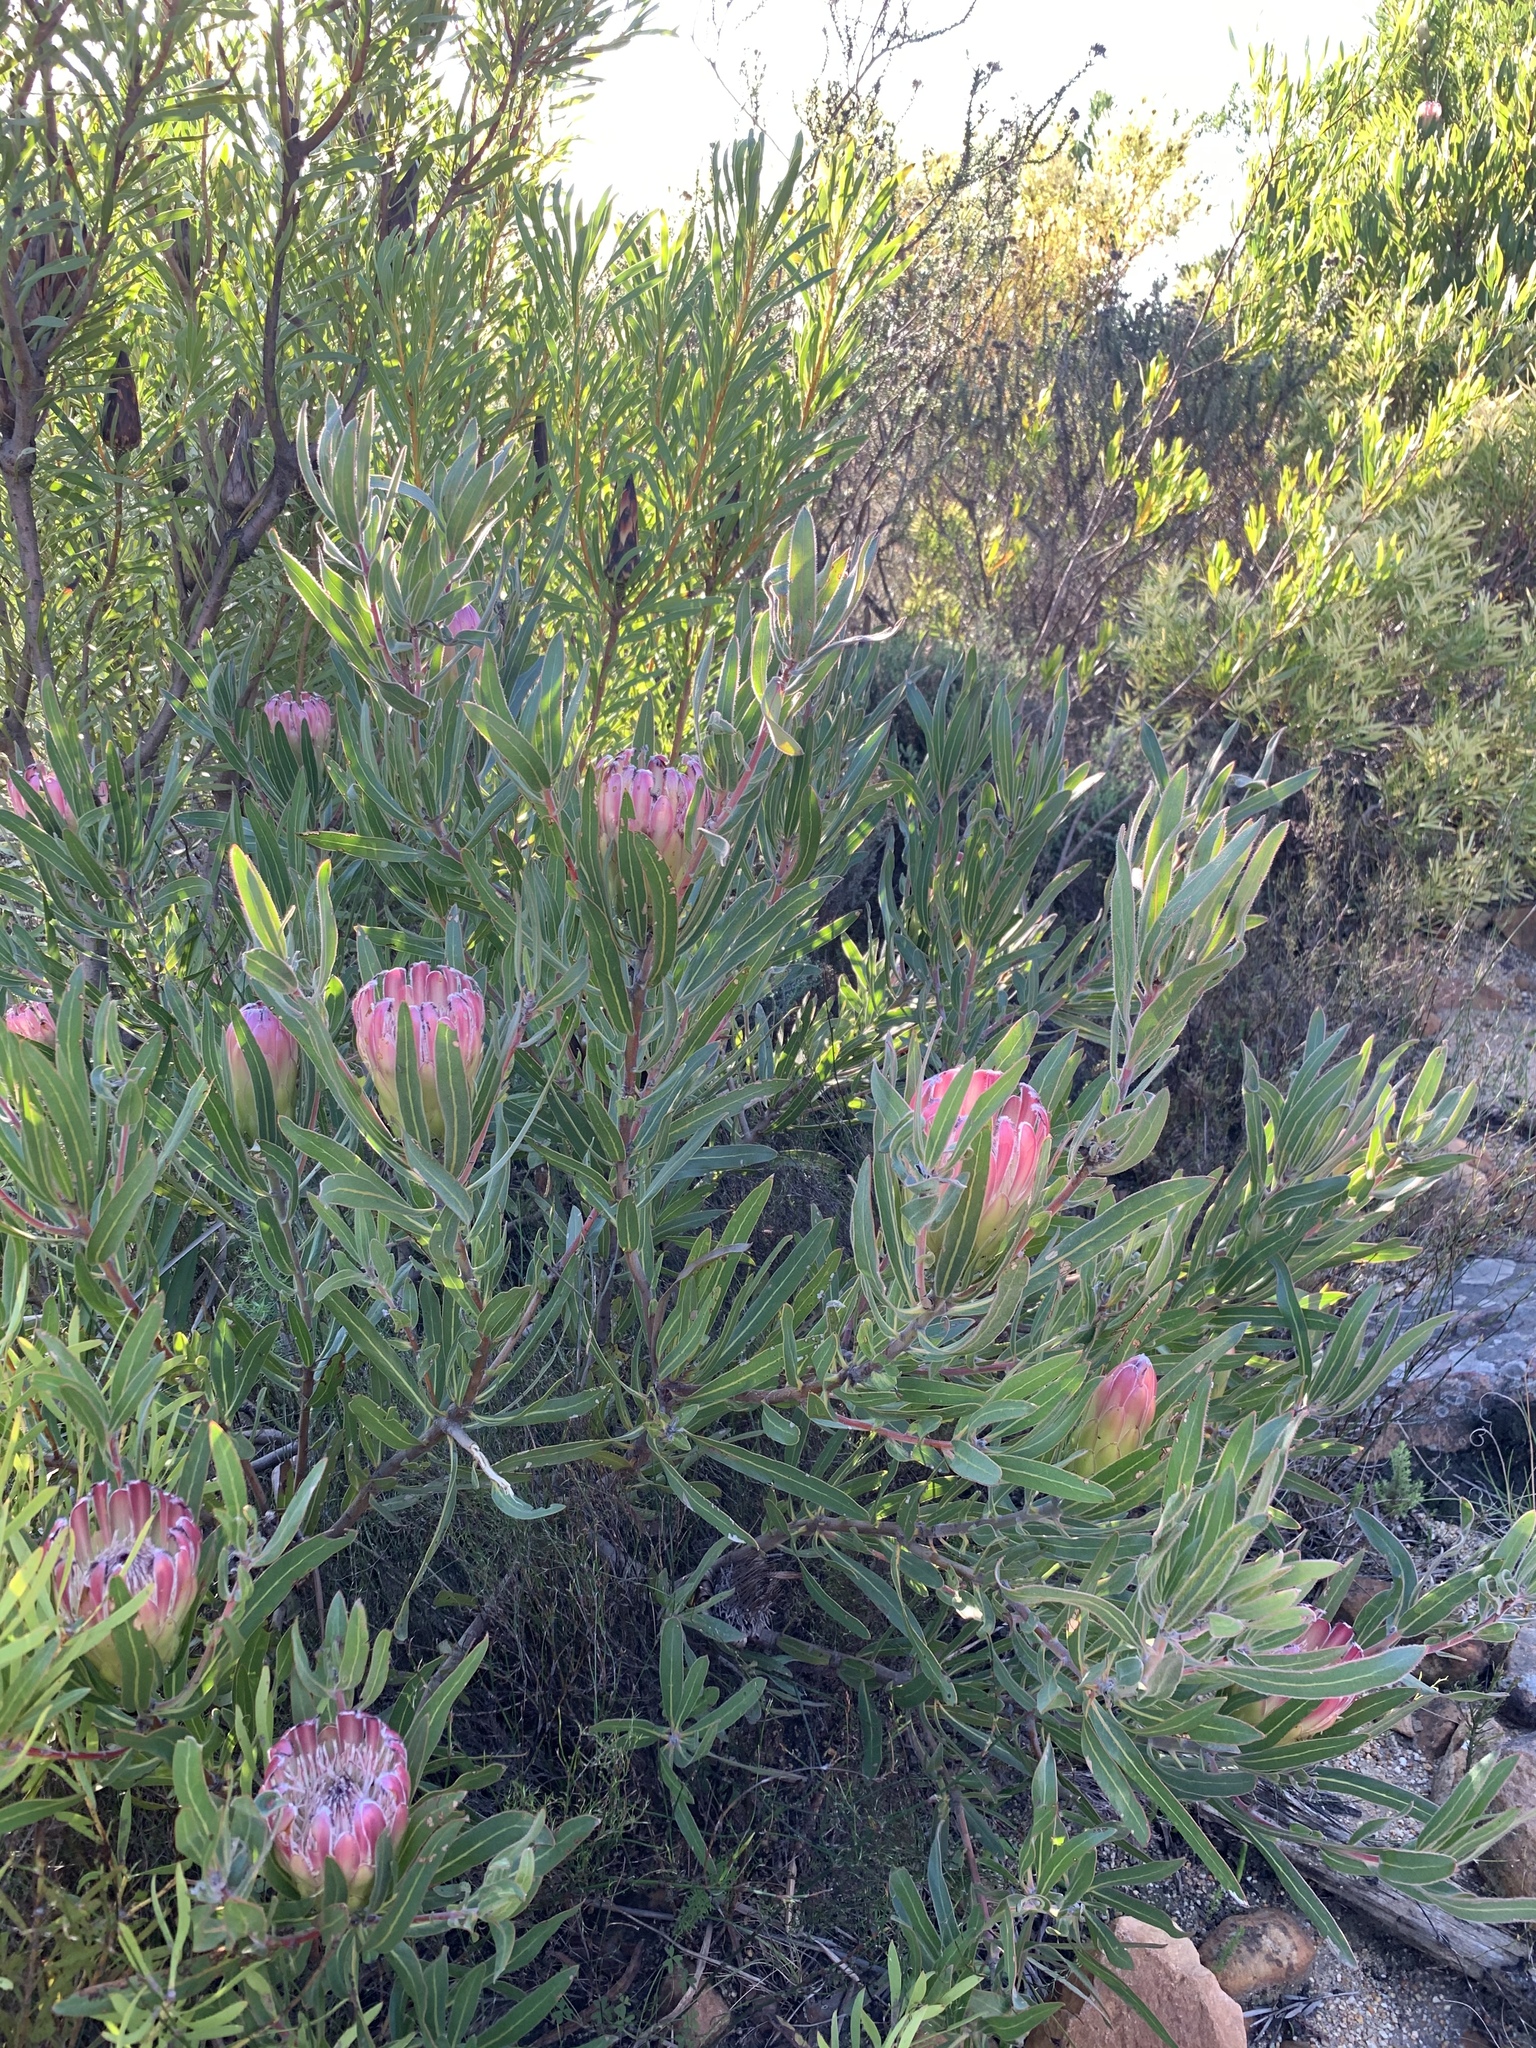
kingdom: Plantae
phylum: Tracheophyta
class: Magnoliopsida
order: Proteales
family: Proteaceae
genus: Protea
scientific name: Protea burchellii
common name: Burchell's sugarbush
